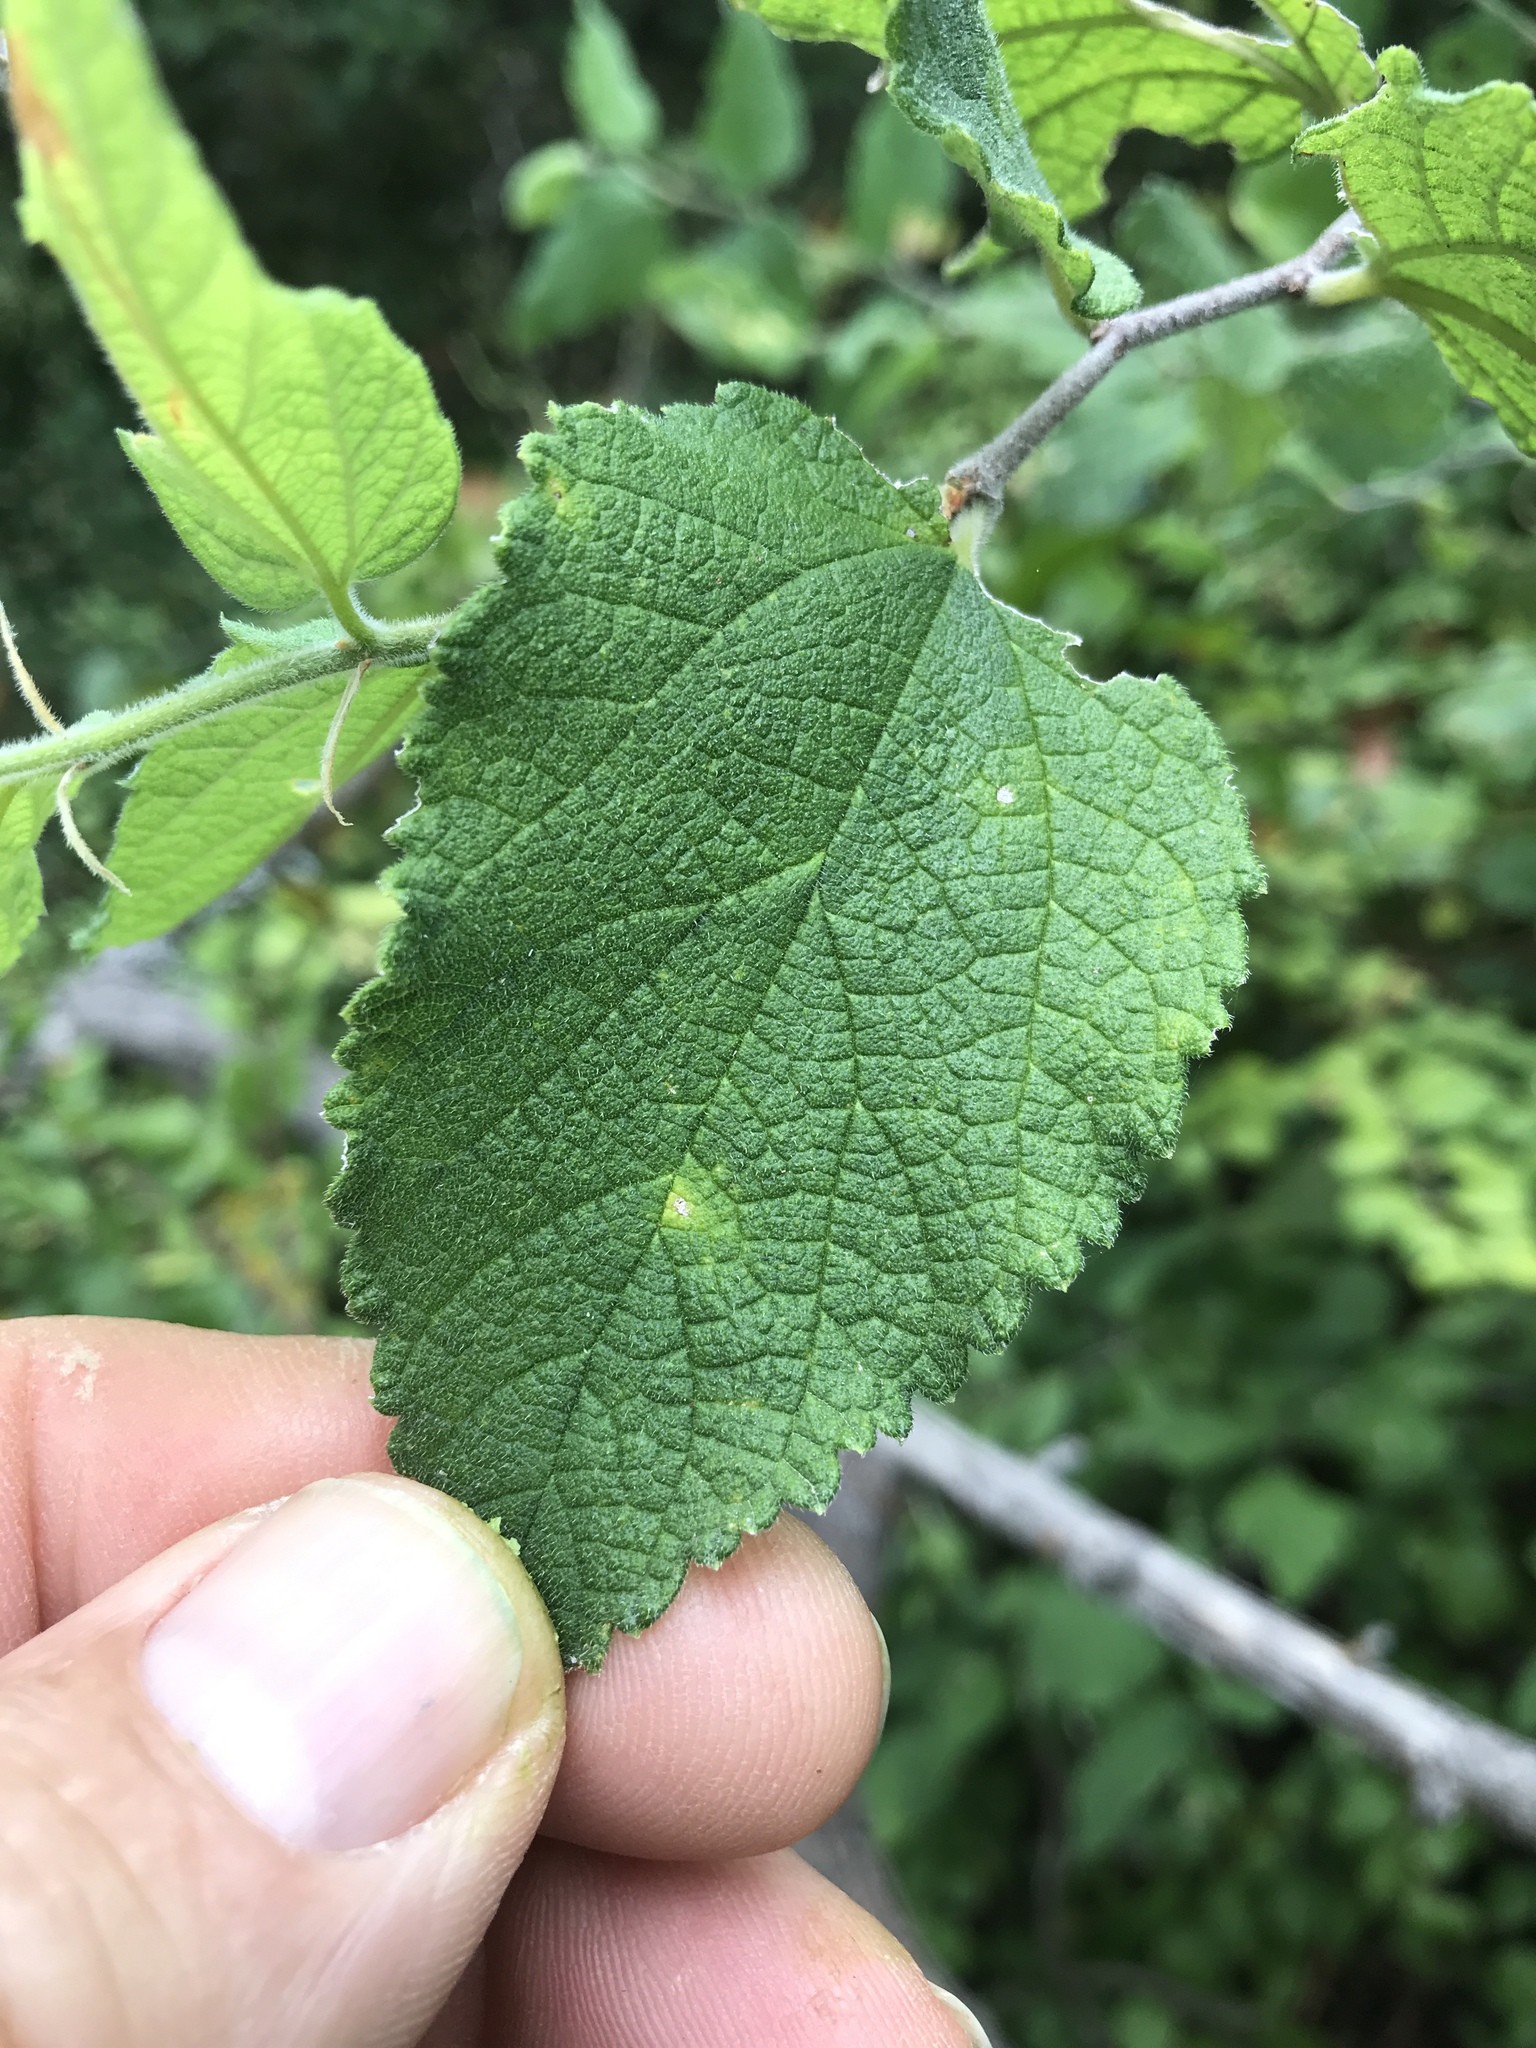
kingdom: Plantae
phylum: Tracheophyta
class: Magnoliopsida
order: Rosales
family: Cannabaceae
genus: Celtis
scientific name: Celtis reticulata
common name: Netleaf hackberry
